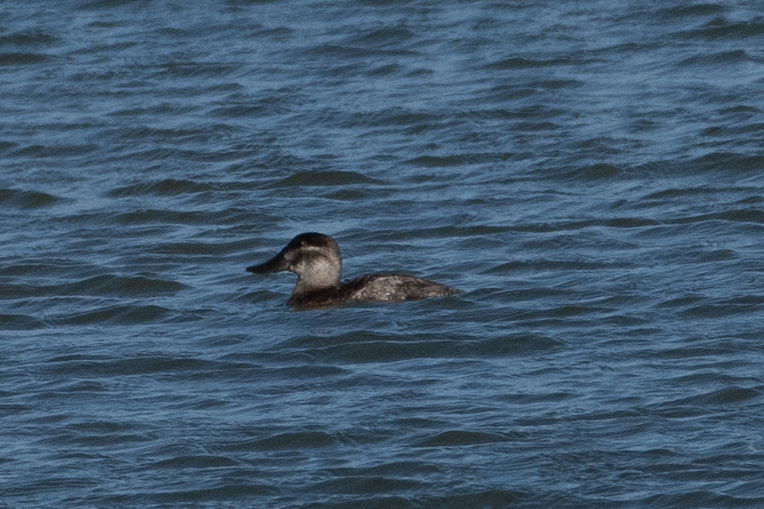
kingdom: Animalia
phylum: Chordata
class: Aves
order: Anseriformes
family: Anatidae
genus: Oxyura
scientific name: Oxyura jamaicensis
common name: Ruddy duck
